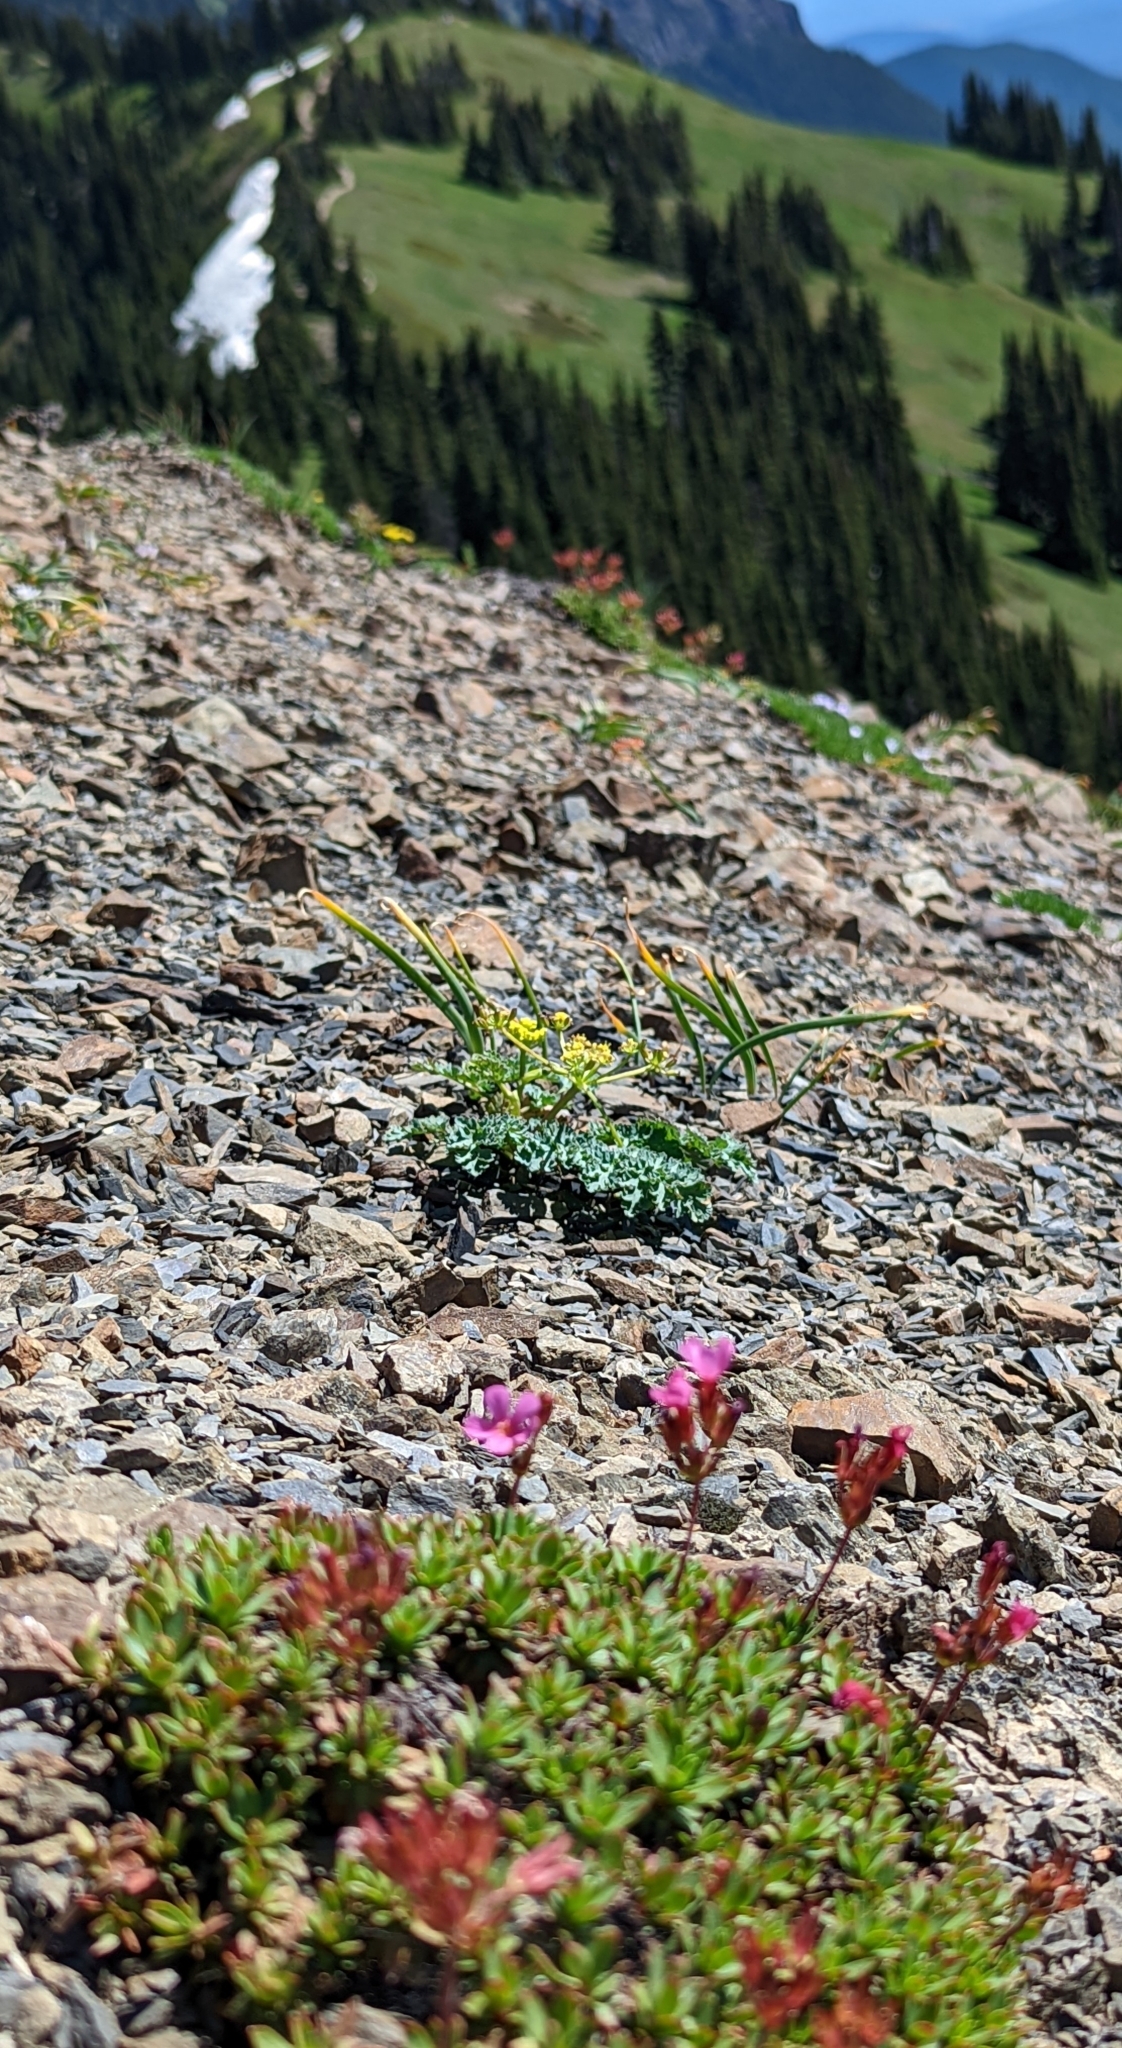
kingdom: Plantae
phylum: Tracheophyta
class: Magnoliopsida
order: Ericales
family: Primulaceae
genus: Androsace
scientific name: Androsace laevigata
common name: Cliff dwarf-primrose
